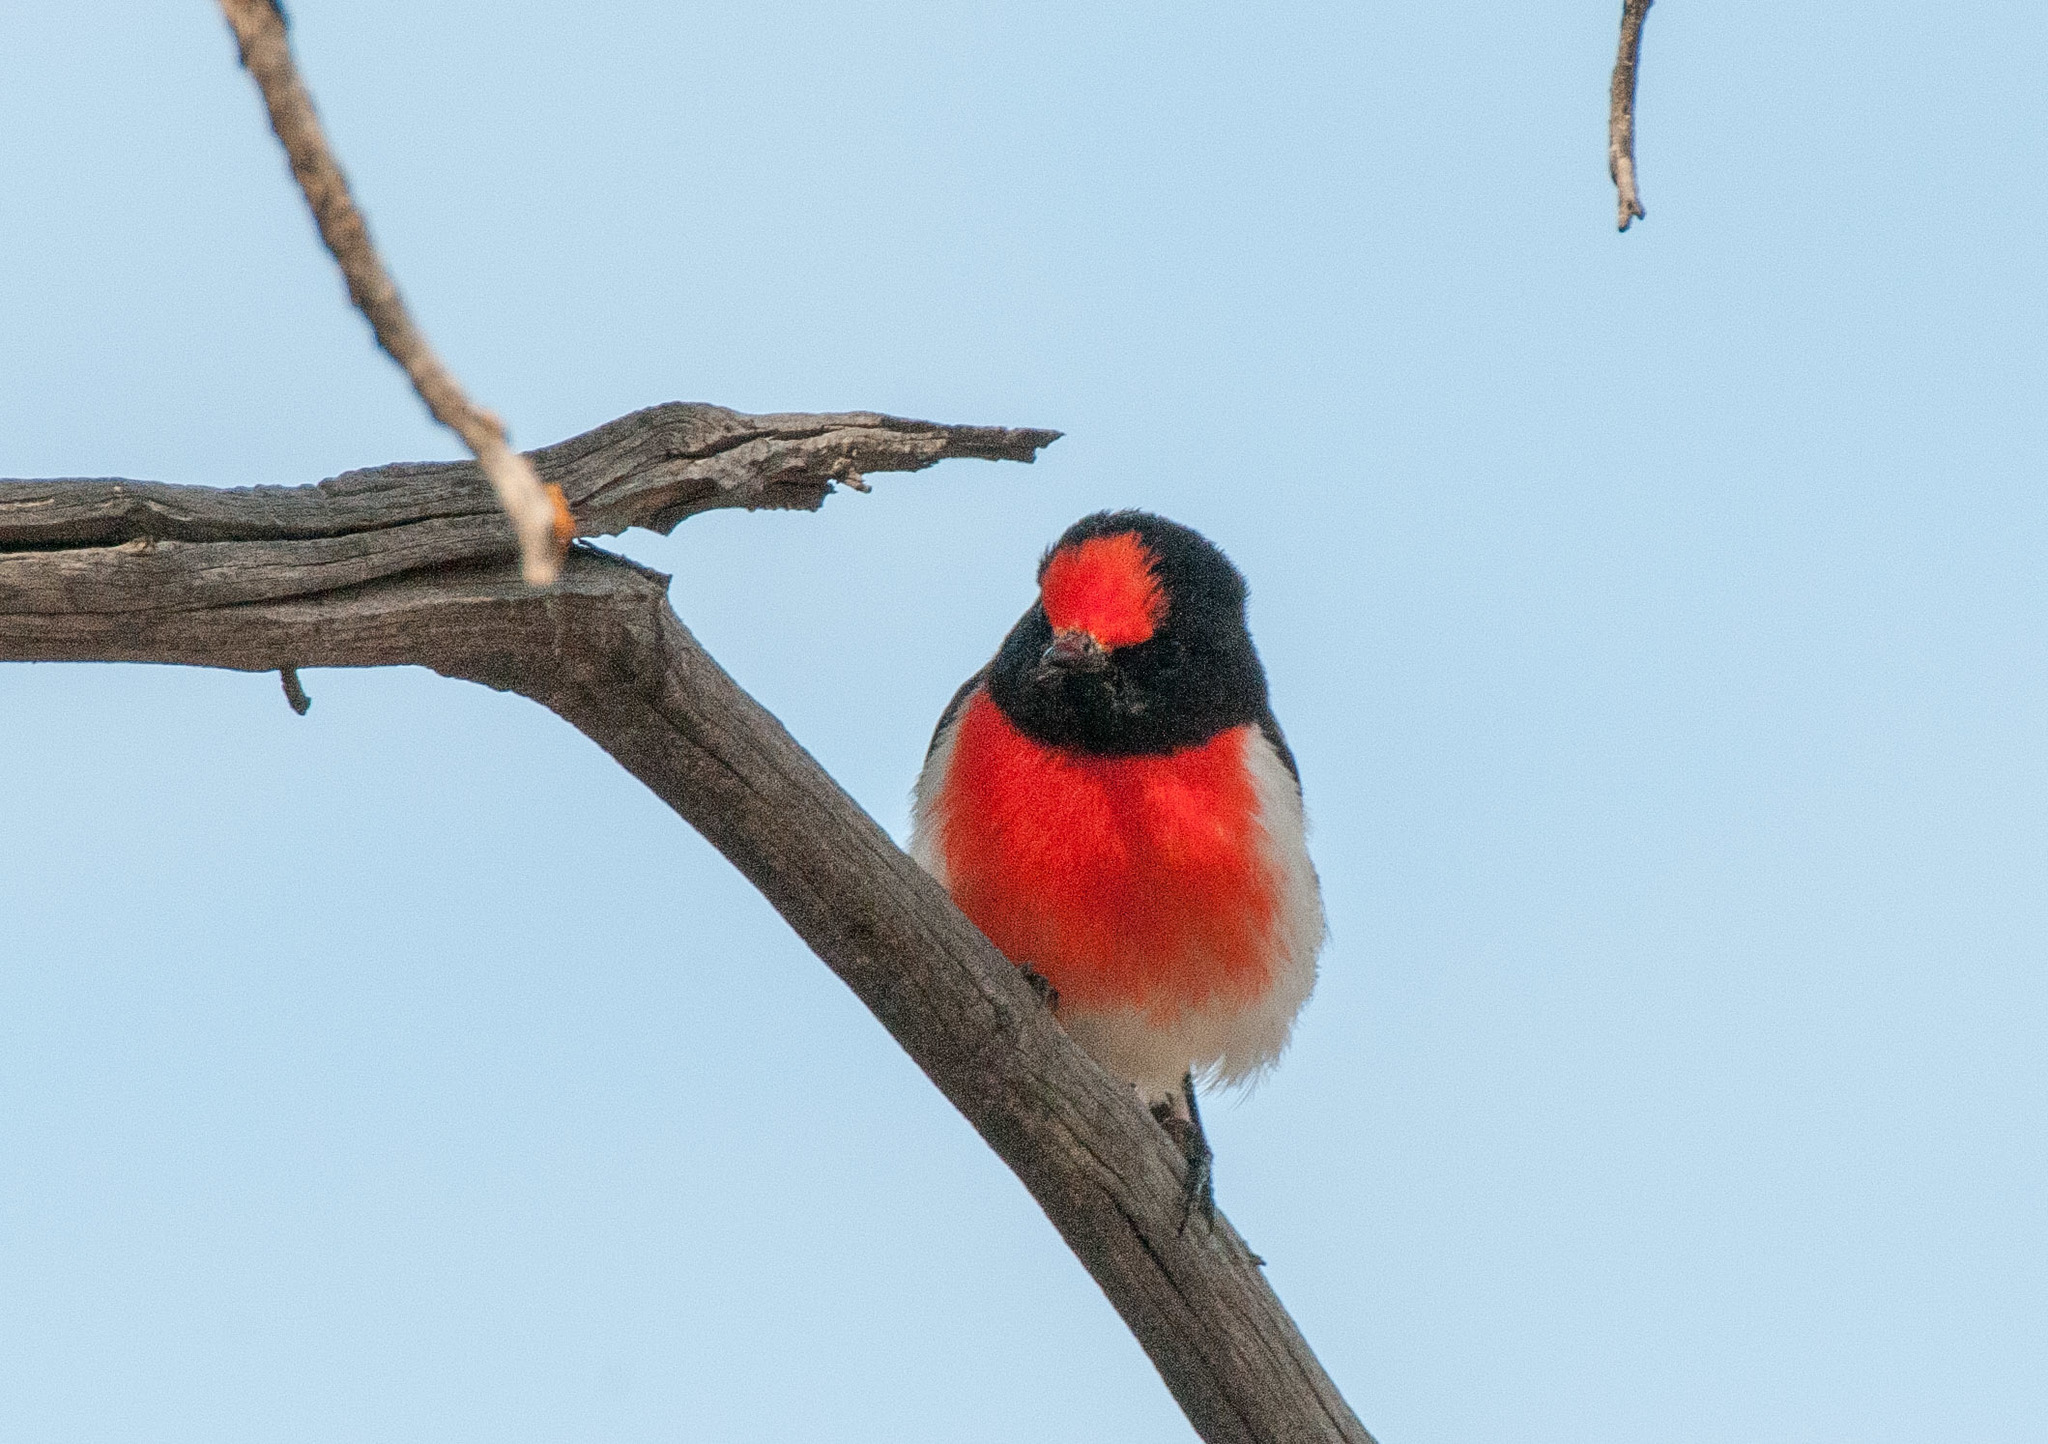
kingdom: Animalia
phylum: Chordata
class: Aves
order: Passeriformes
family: Petroicidae
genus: Petroica
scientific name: Petroica goodenovii
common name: Red-capped robin
